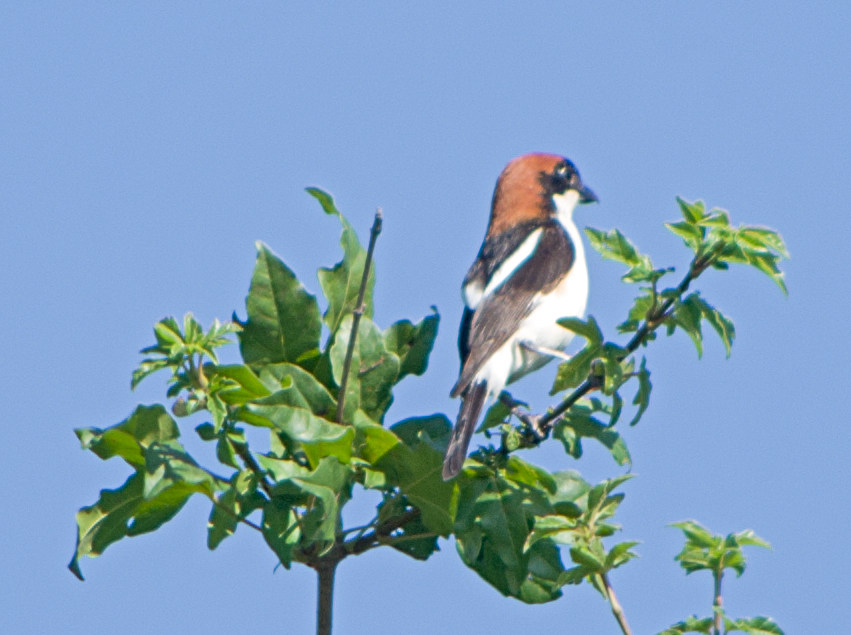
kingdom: Animalia
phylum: Chordata
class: Aves
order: Passeriformes
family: Laniidae
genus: Lanius
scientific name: Lanius senator
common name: Woodchat shrike
